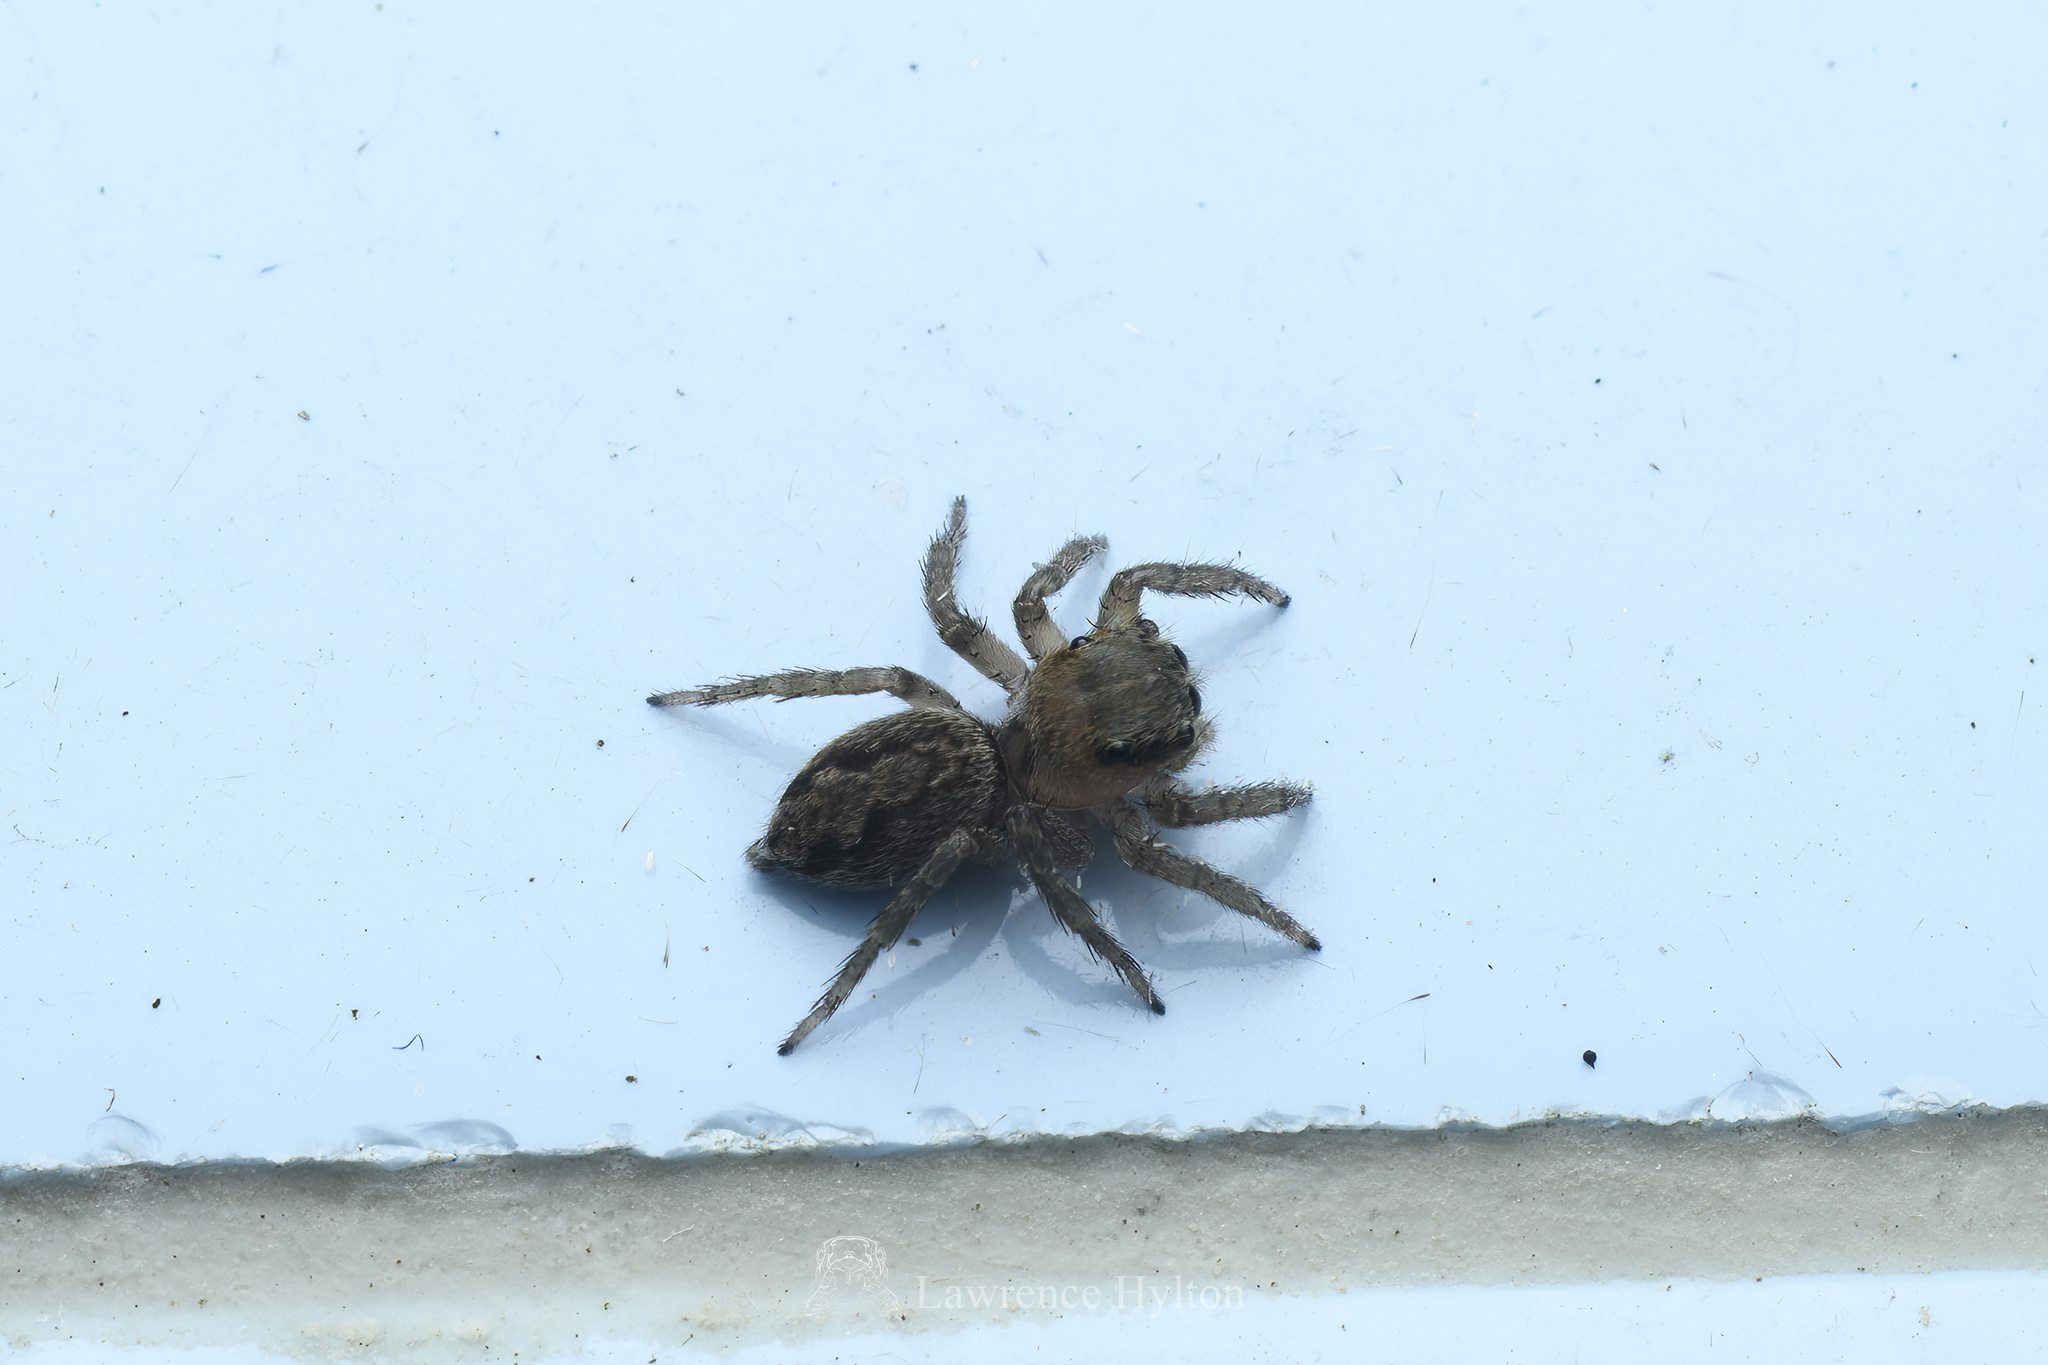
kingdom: Animalia
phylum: Arthropoda
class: Arachnida
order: Araneae
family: Salticidae
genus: Hasarius
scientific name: Hasarius adansoni
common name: Jumping spider
